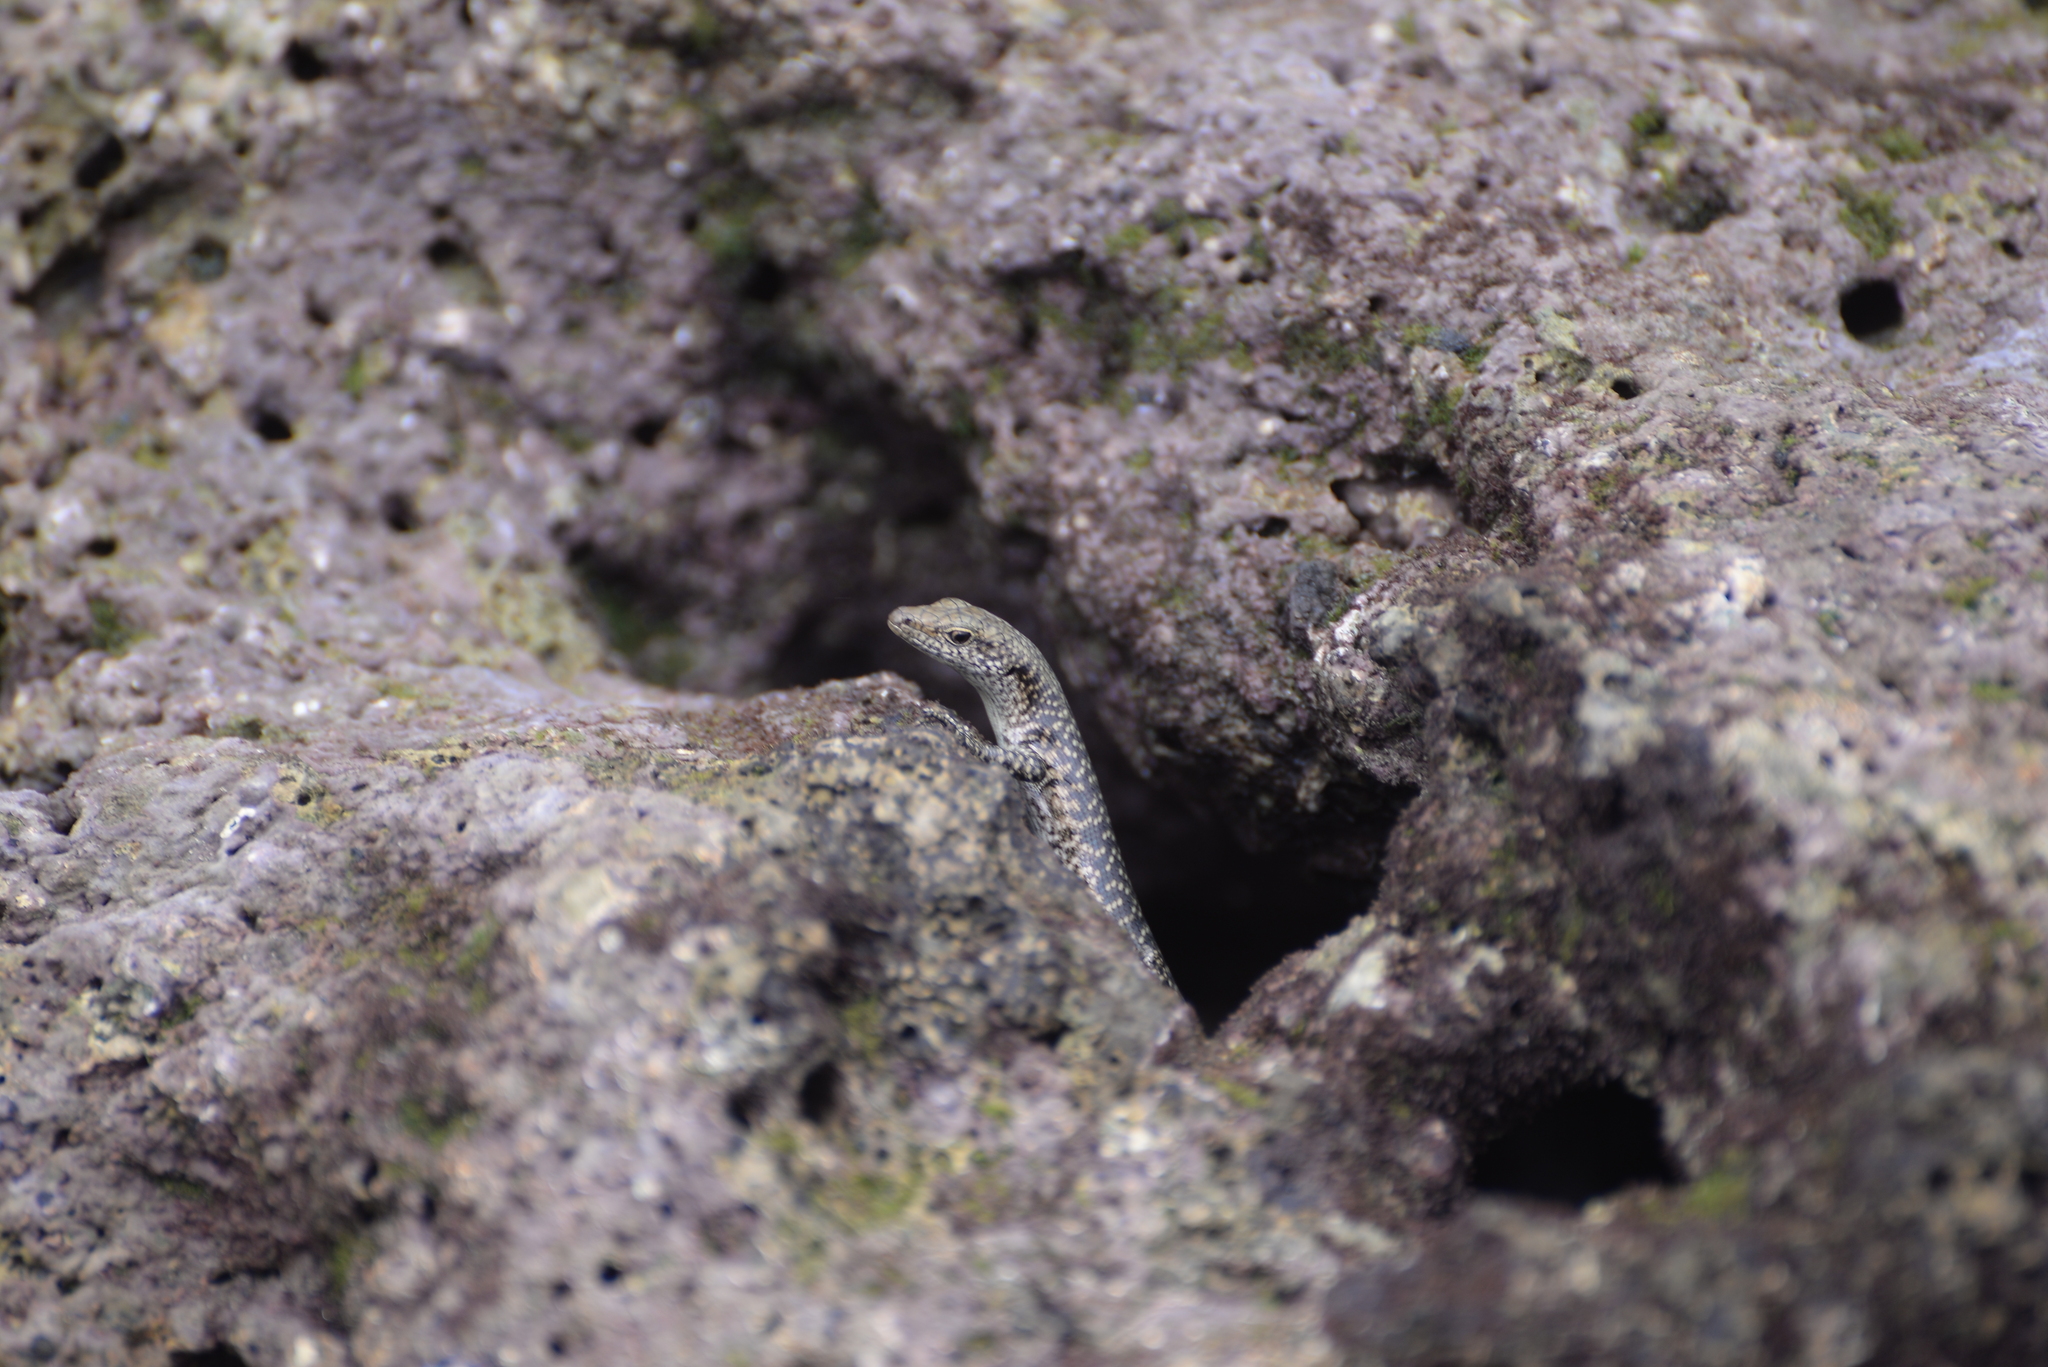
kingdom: Animalia
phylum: Chordata
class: Squamata
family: Scincidae
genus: Emoia
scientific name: Emoia atrocostata
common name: Littoral skink
